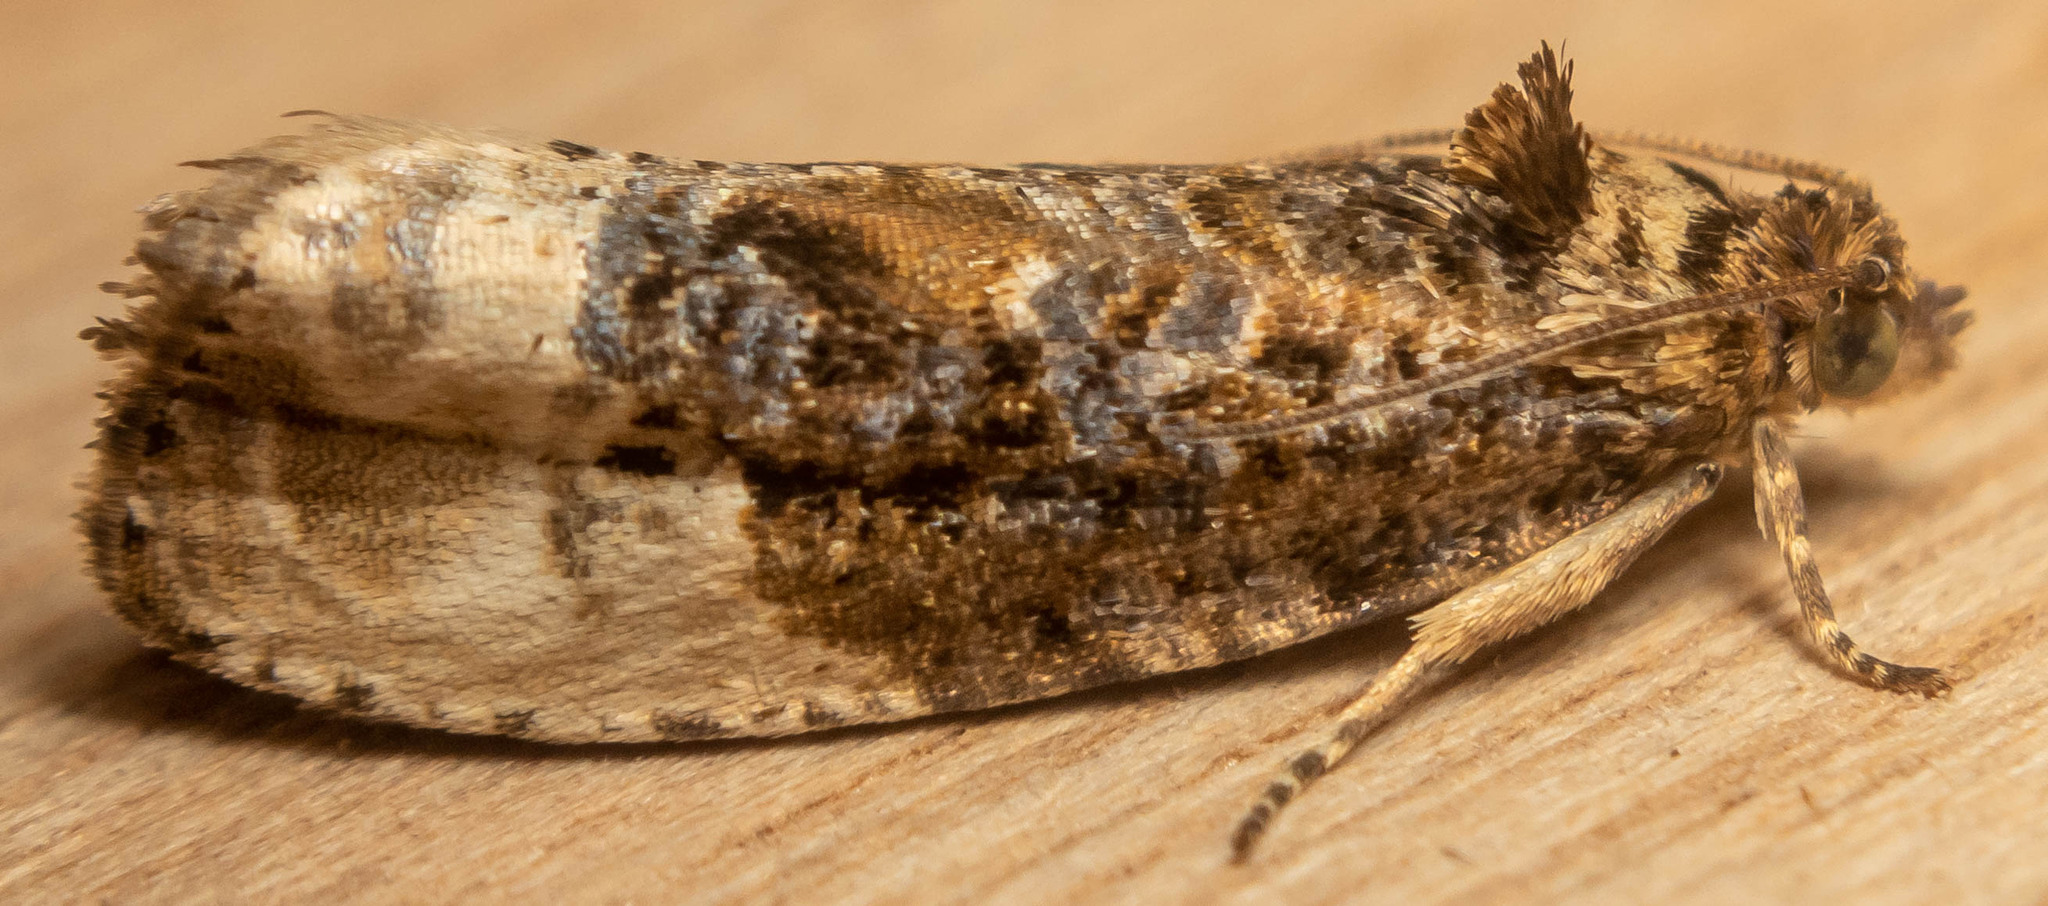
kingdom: Animalia
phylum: Arthropoda
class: Insecta
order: Lepidoptera
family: Tortricidae
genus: Hedya
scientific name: Hedya nubiferana
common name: Marbled orchard tortrix
